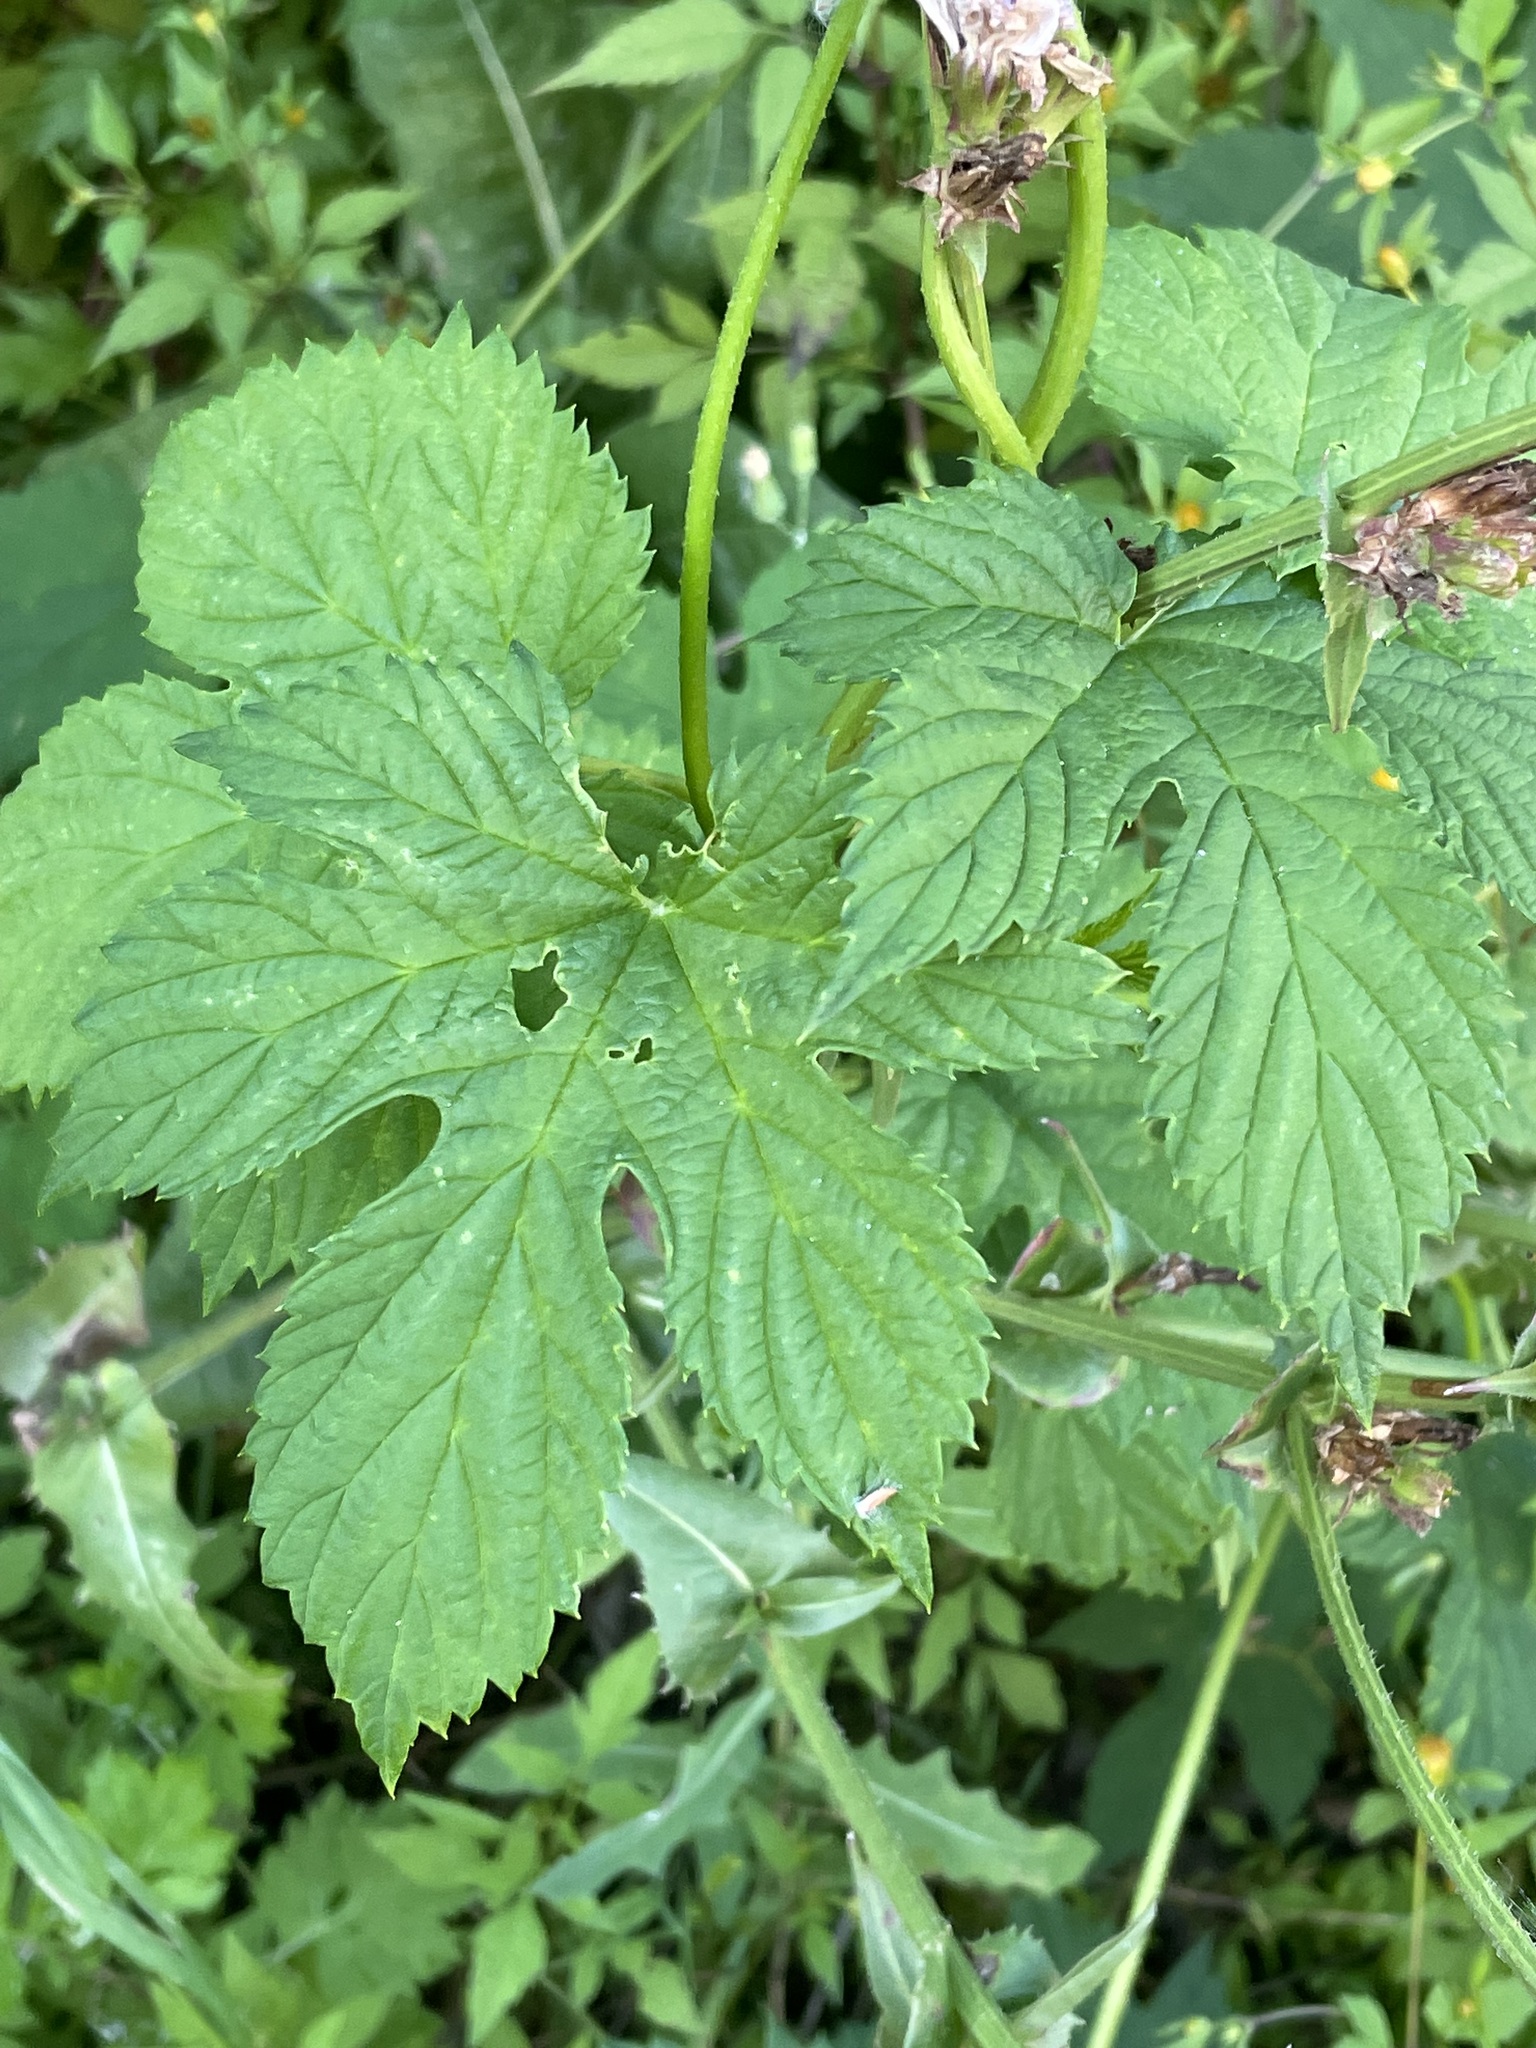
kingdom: Plantae
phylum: Tracheophyta
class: Magnoliopsida
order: Rosales
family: Cannabaceae
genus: Humulus
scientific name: Humulus lupulus
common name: Hop
